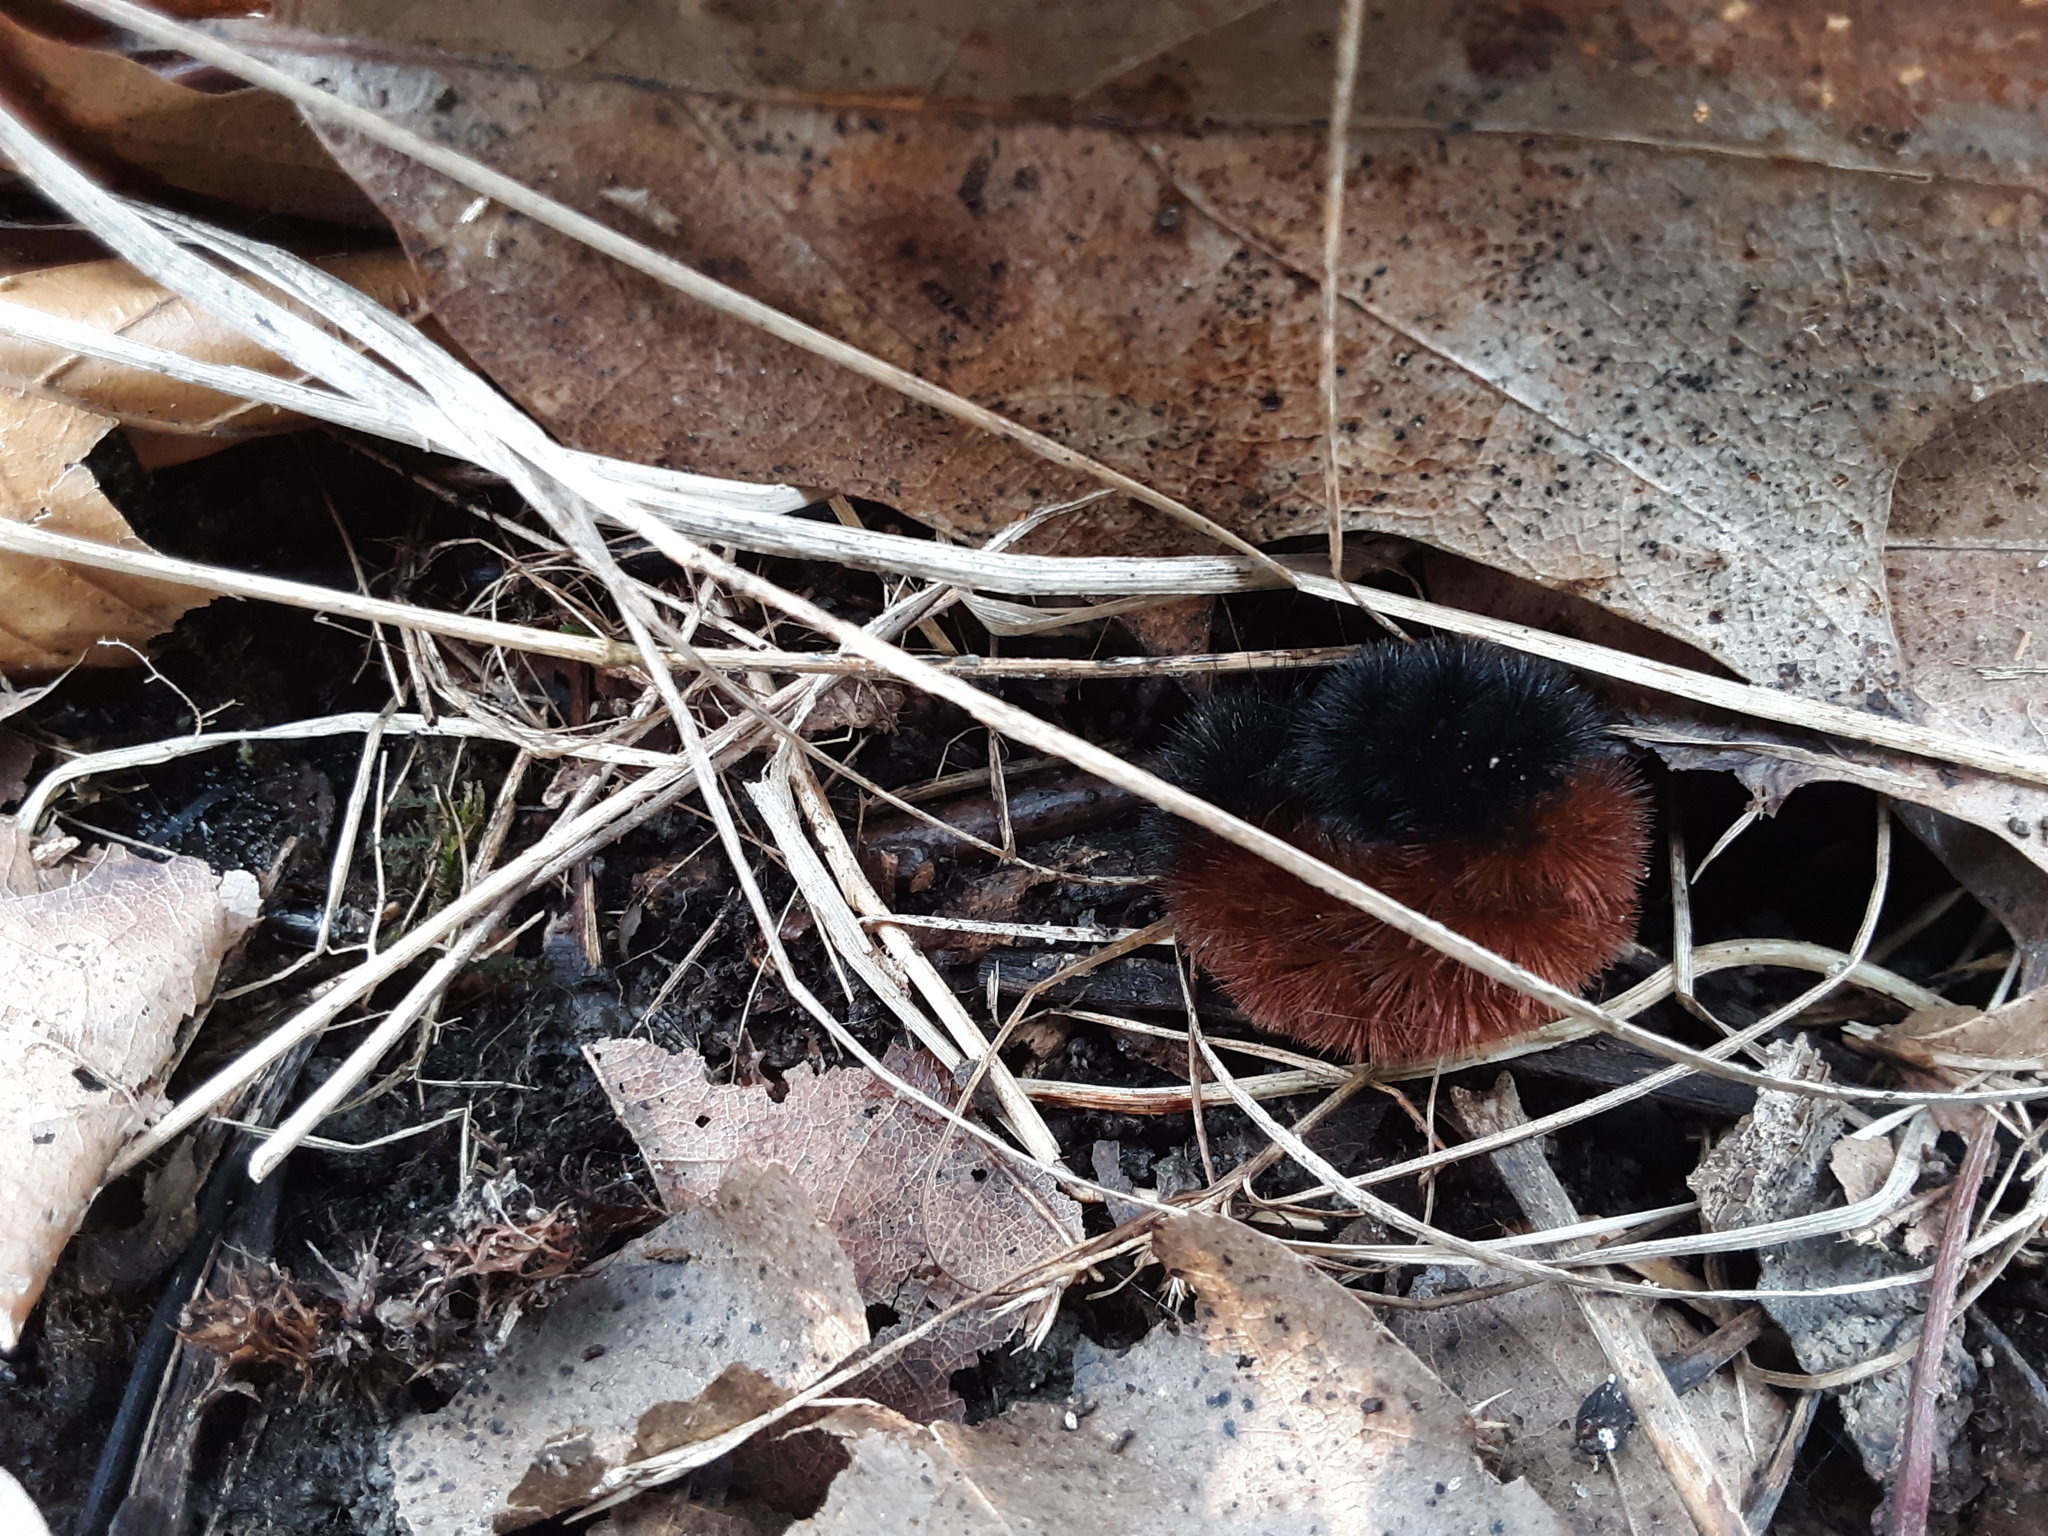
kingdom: Animalia
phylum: Arthropoda
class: Insecta
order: Lepidoptera
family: Erebidae
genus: Pyrrharctia
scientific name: Pyrrharctia isabella
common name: Isabella tiger moth
